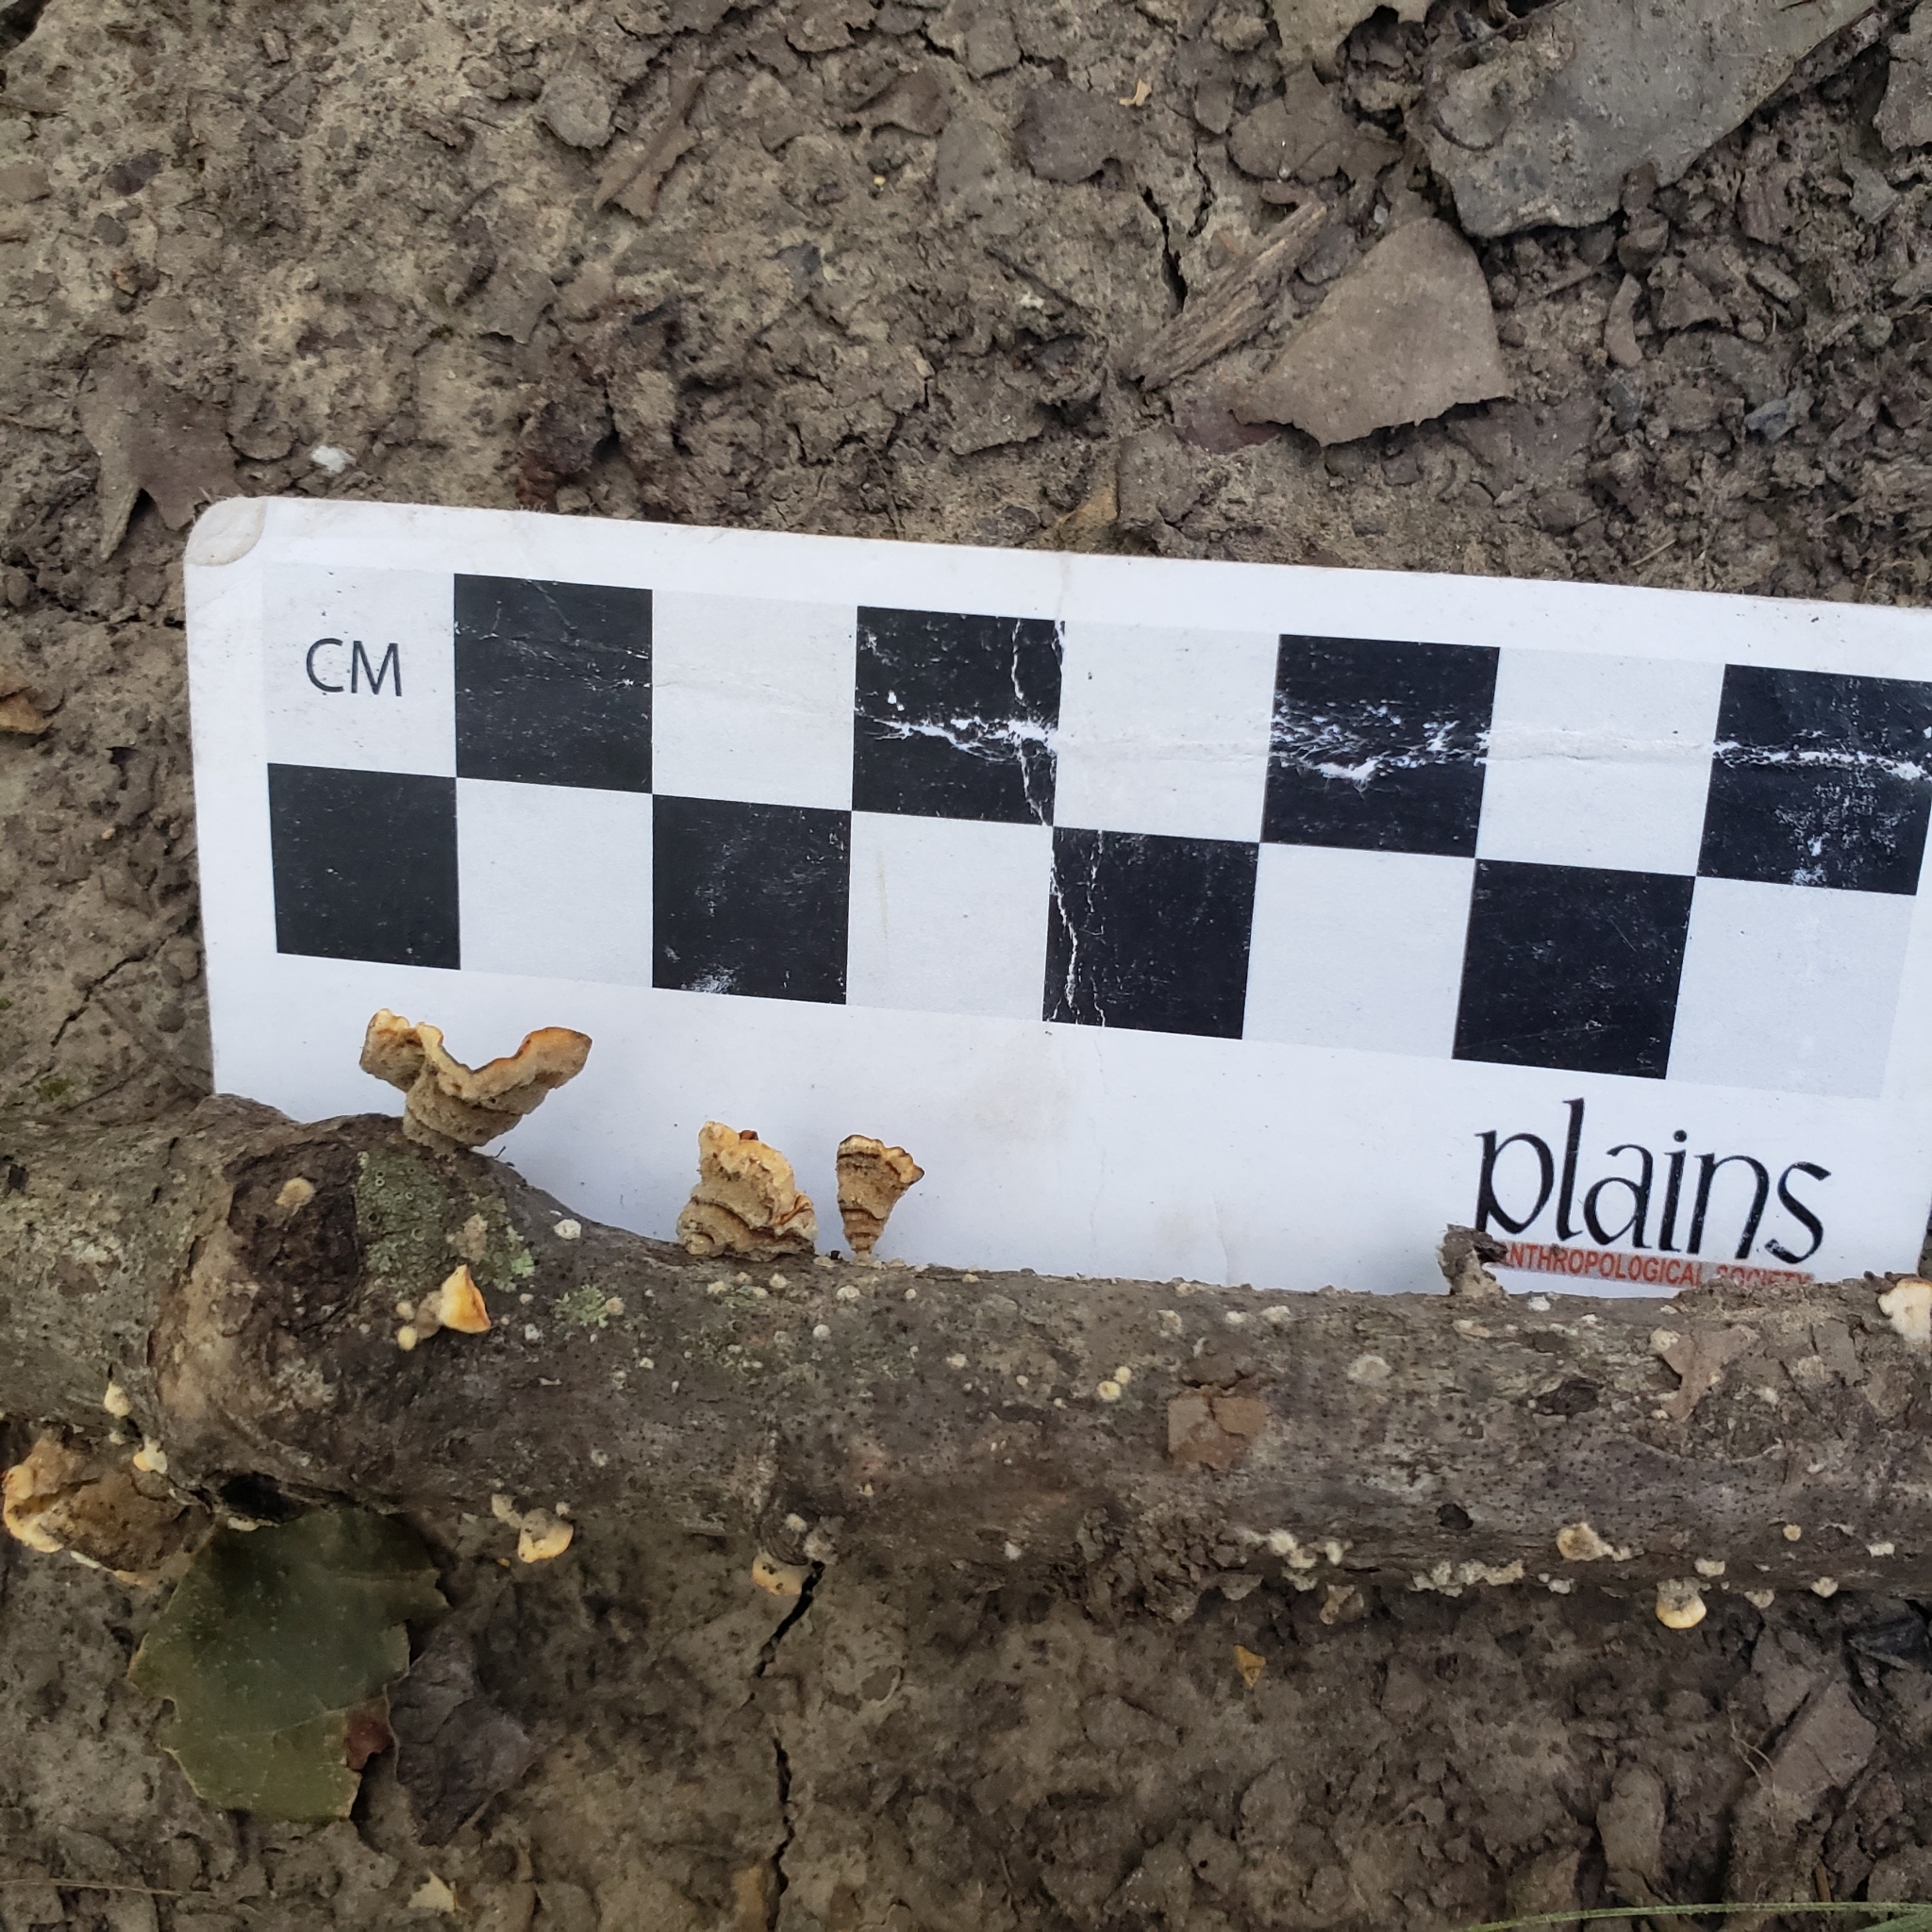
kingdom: Fungi
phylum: Basidiomycota
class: Agaricomycetes
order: Russulales
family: Stereaceae
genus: Stereum
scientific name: Stereum complicatum
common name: Crowded parchment
